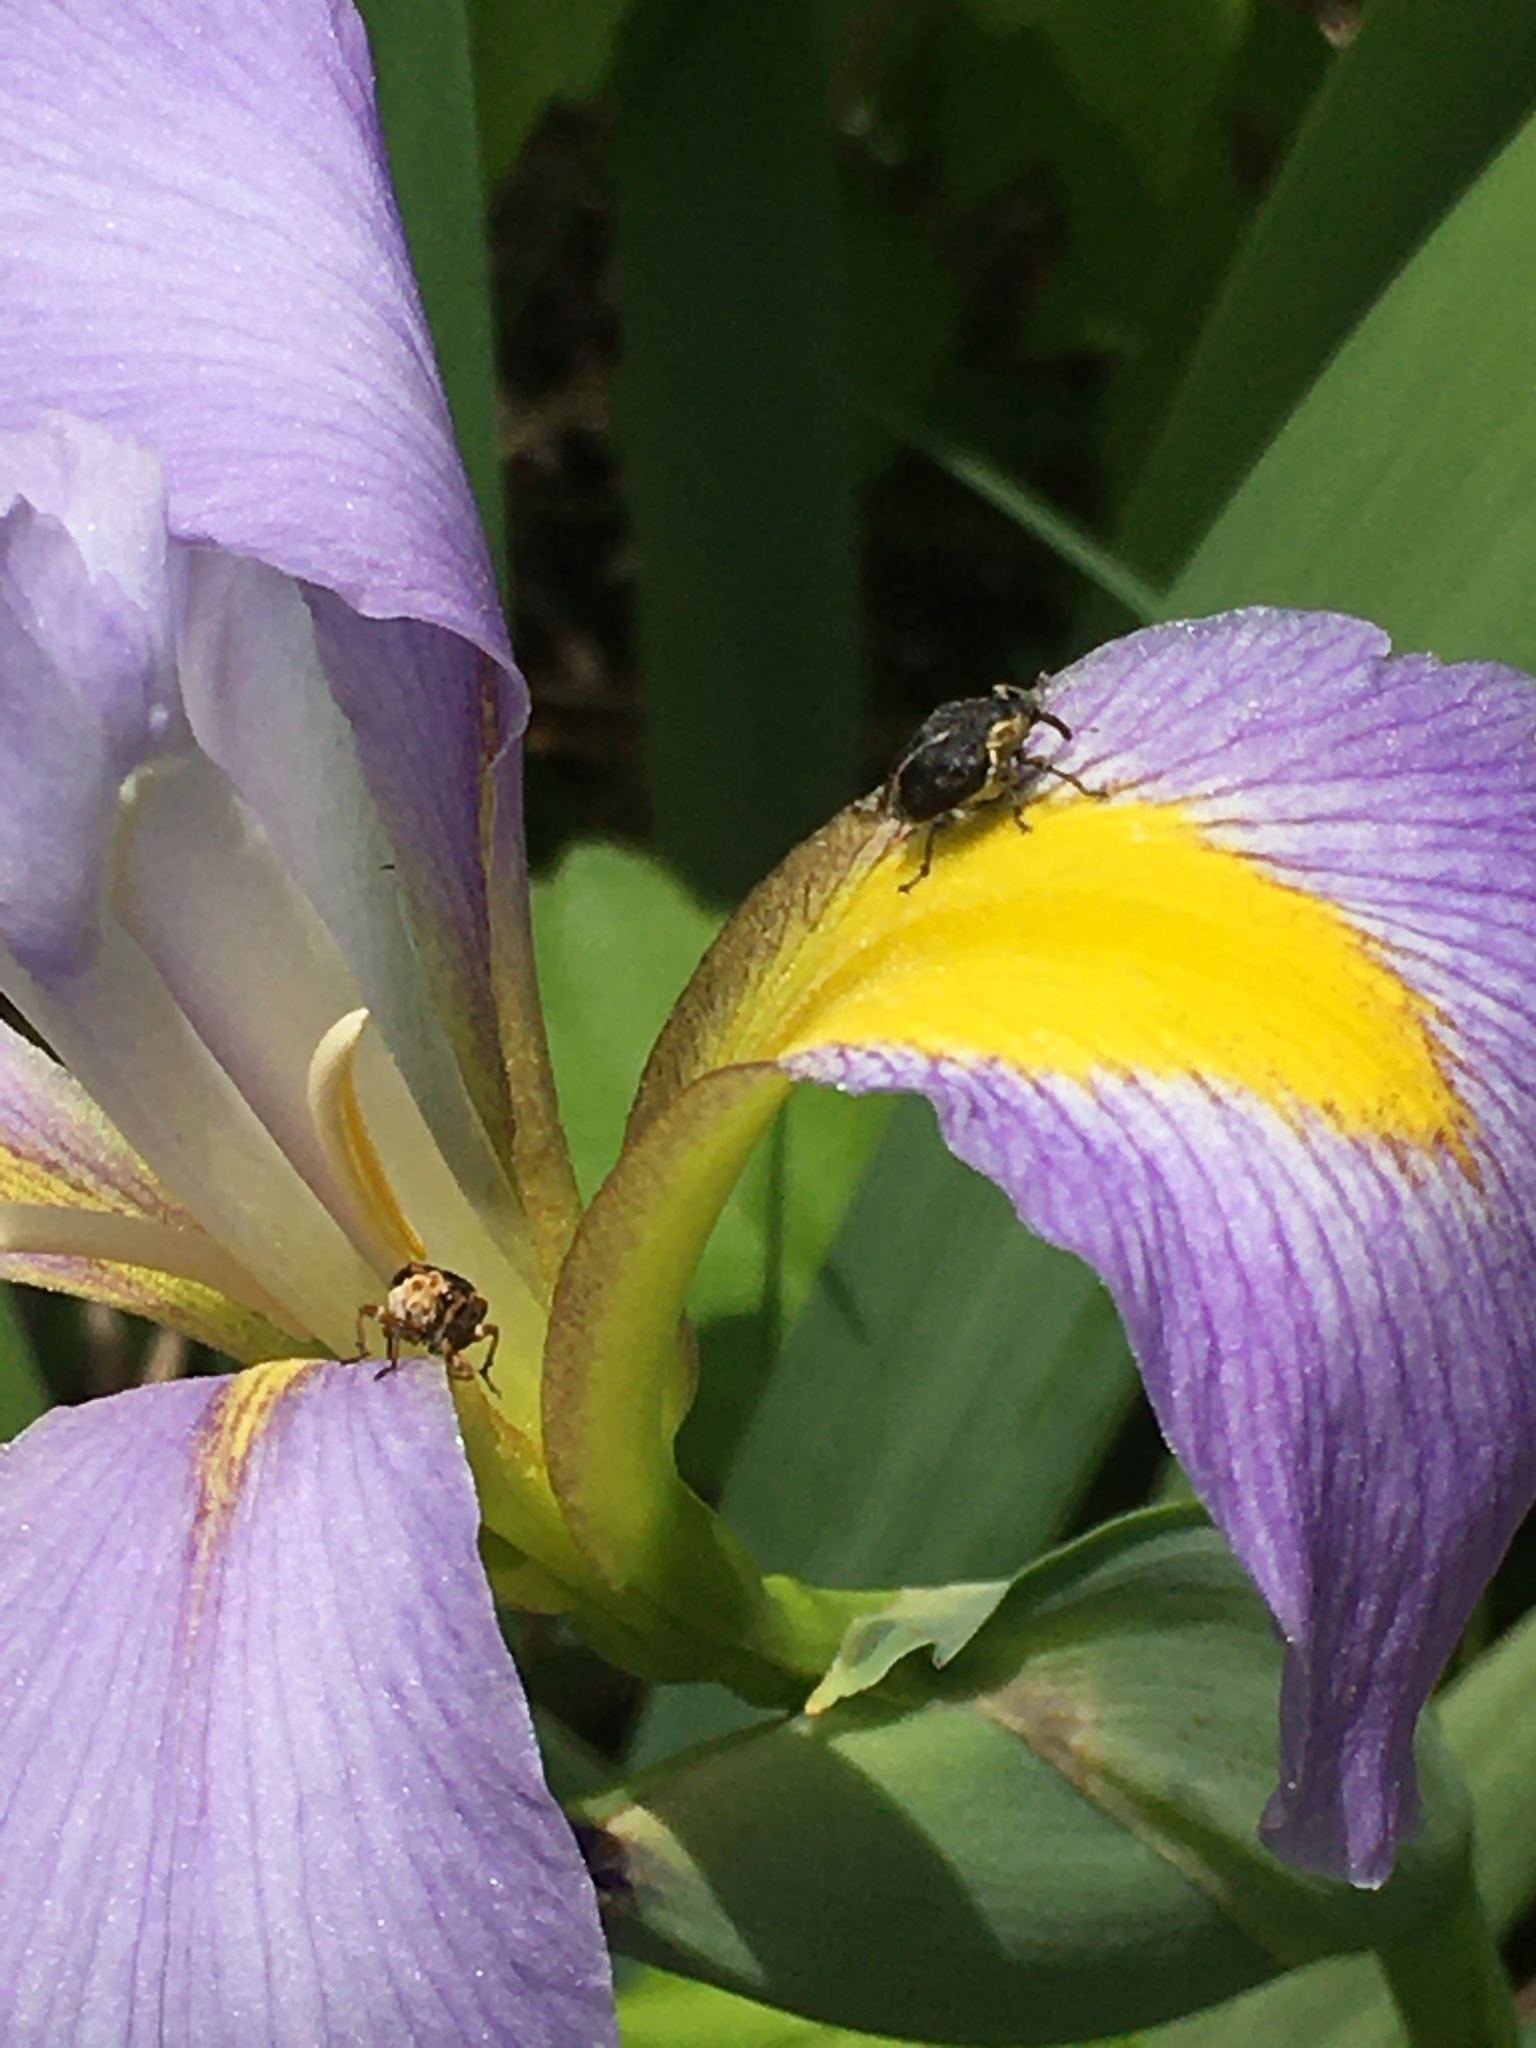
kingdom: Animalia
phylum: Arthropoda
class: Insecta
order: Coleoptera
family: Curculionidae
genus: Mononychus
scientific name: Mononychus vulpeculus
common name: Iris weevil
